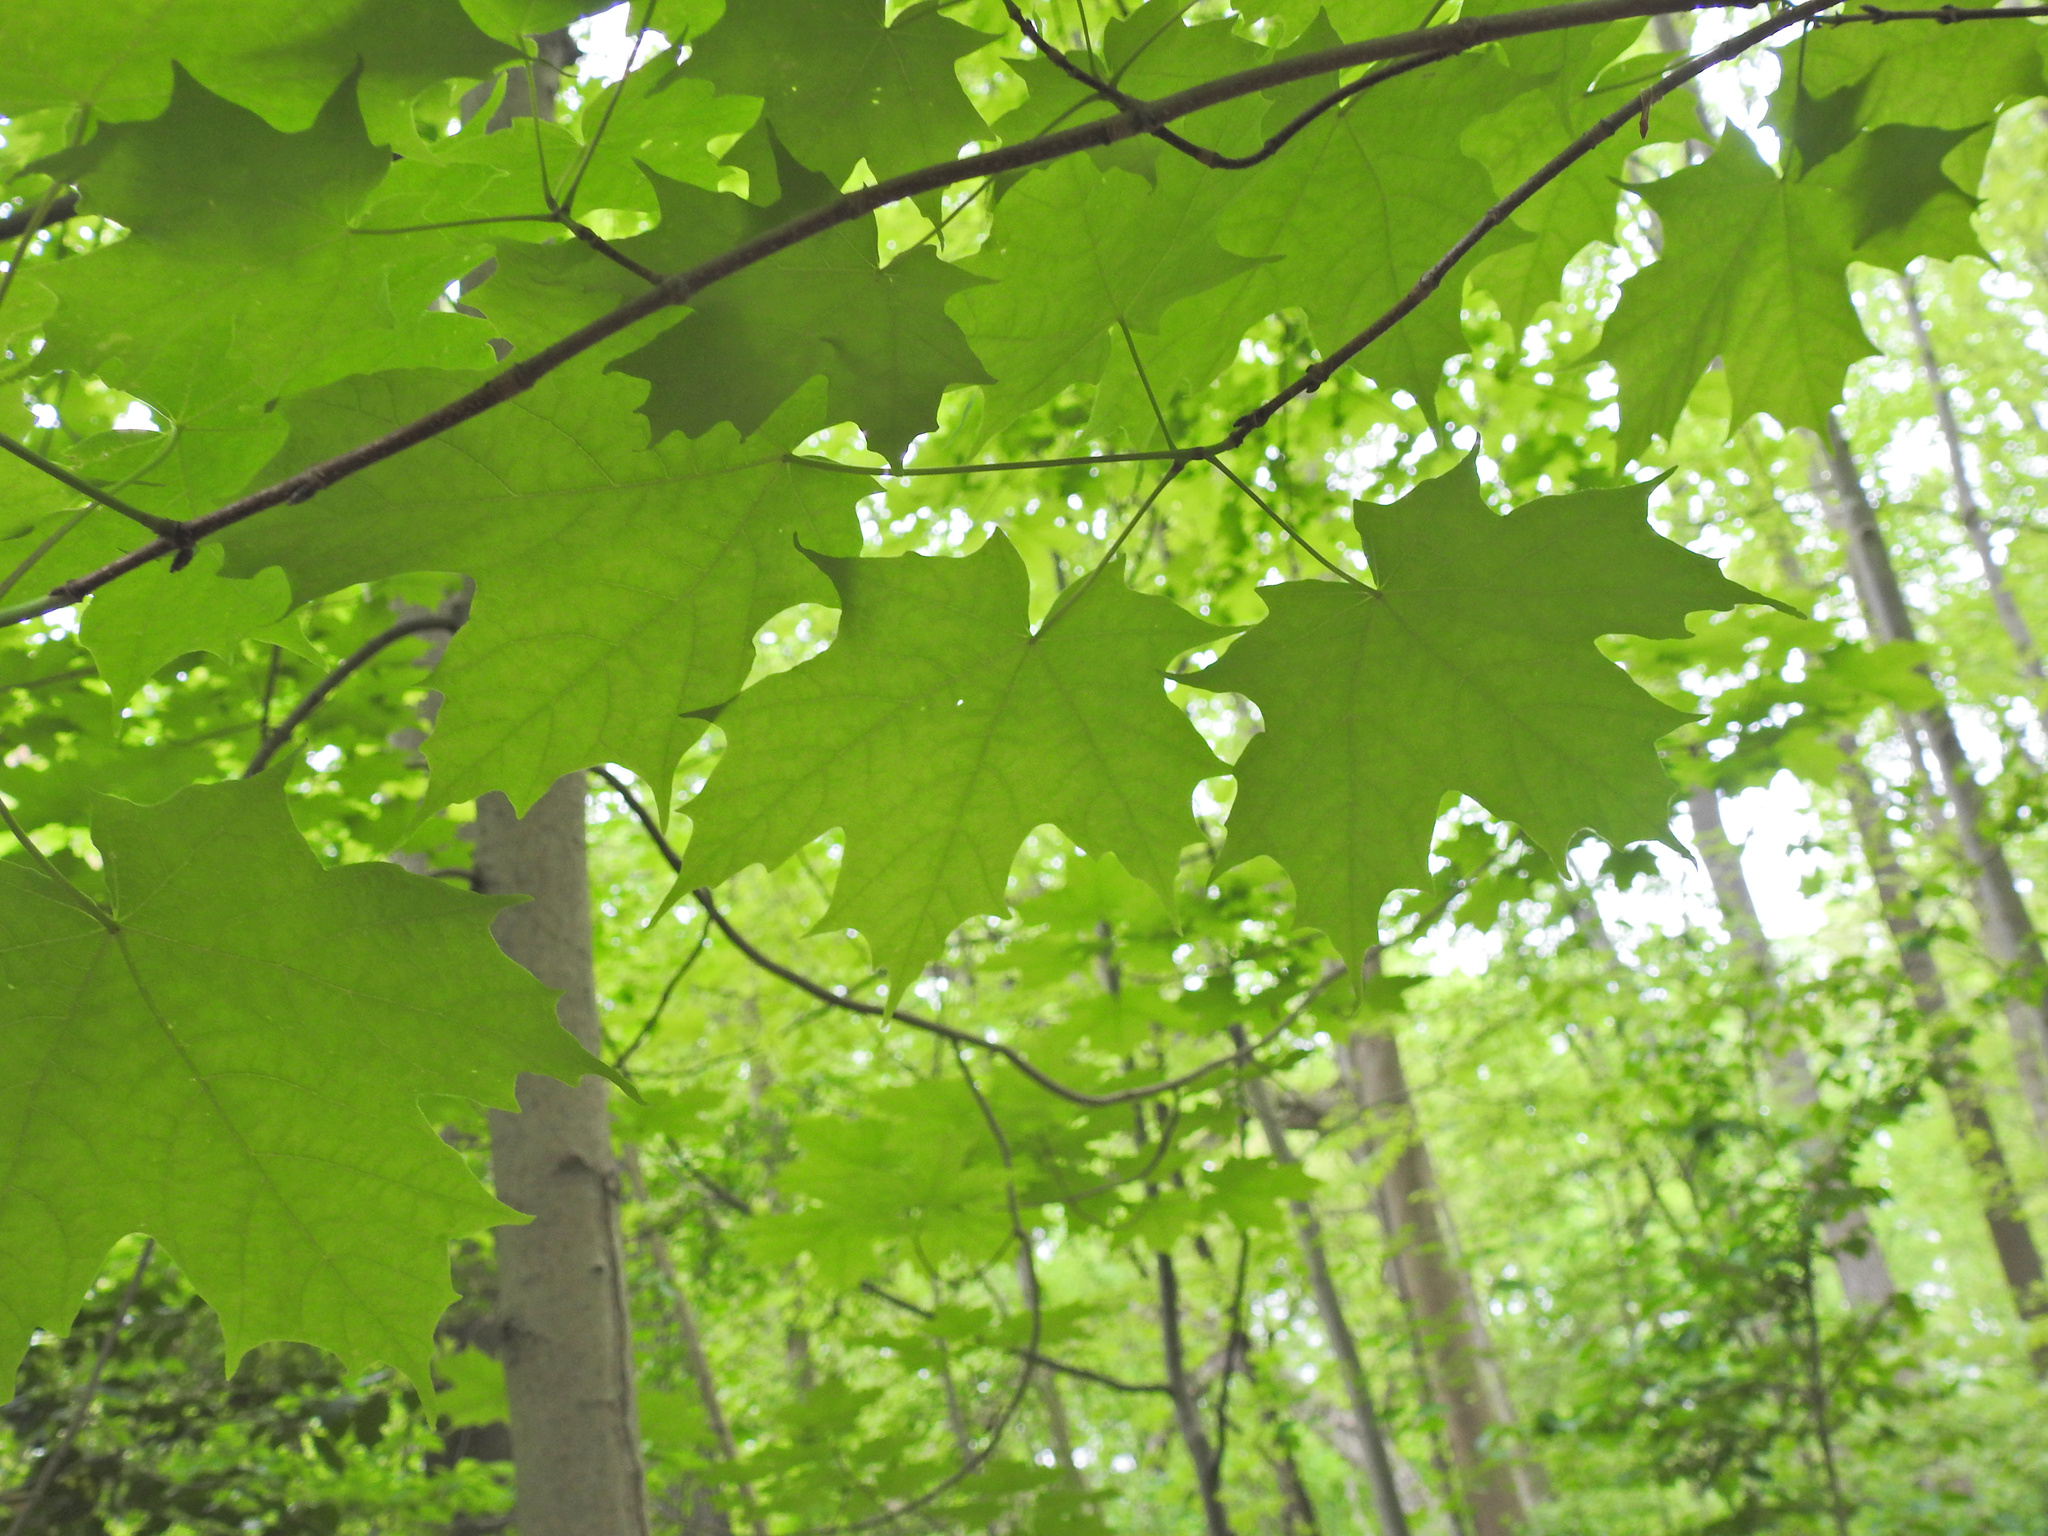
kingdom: Plantae
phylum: Tracheophyta
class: Magnoliopsida
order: Sapindales
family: Sapindaceae
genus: Acer
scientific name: Acer saccharum
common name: Sugar maple
